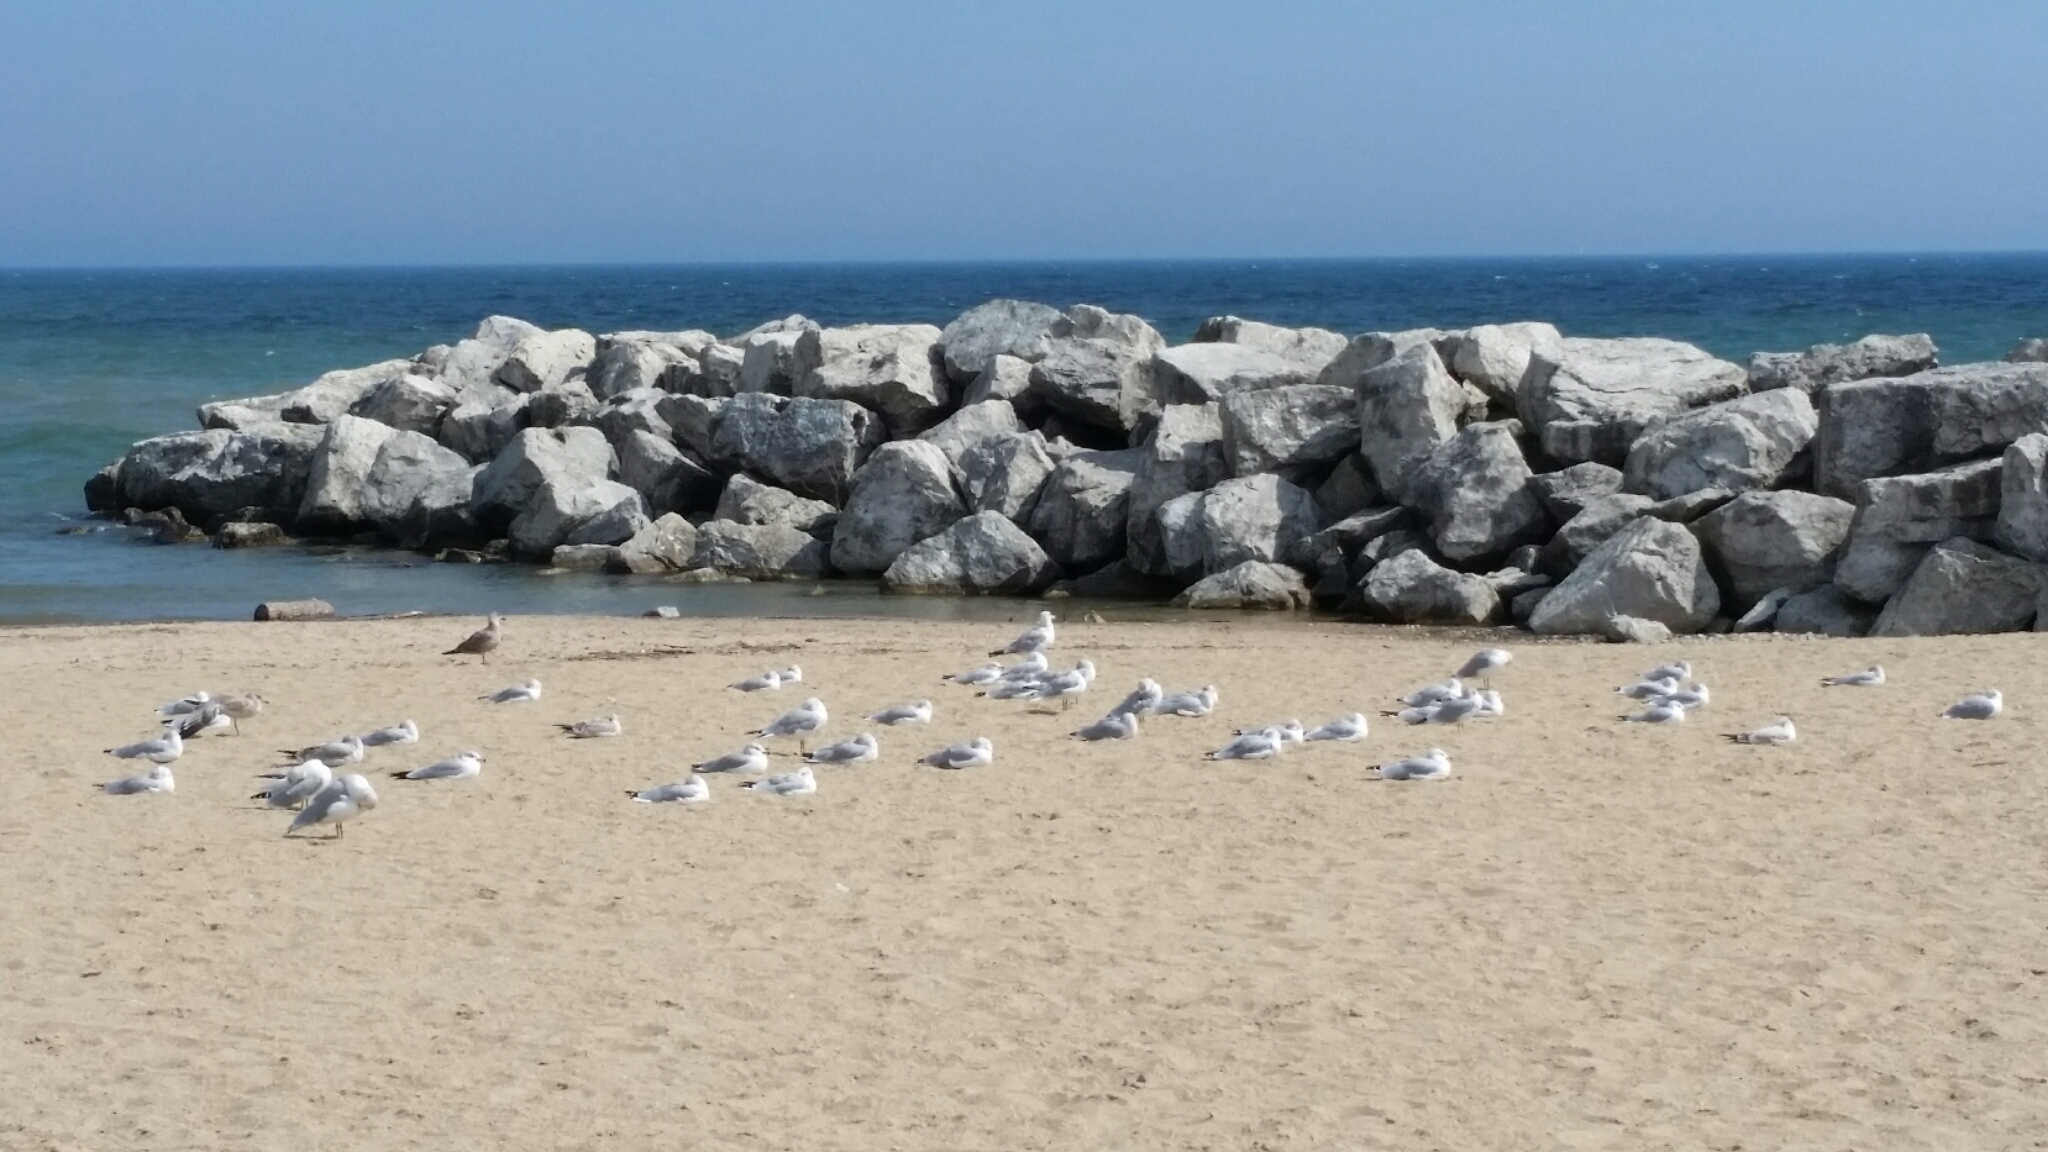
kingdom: Animalia
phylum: Chordata
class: Aves
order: Charadriiformes
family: Laridae
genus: Larus
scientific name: Larus argentatus
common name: Herring gull
